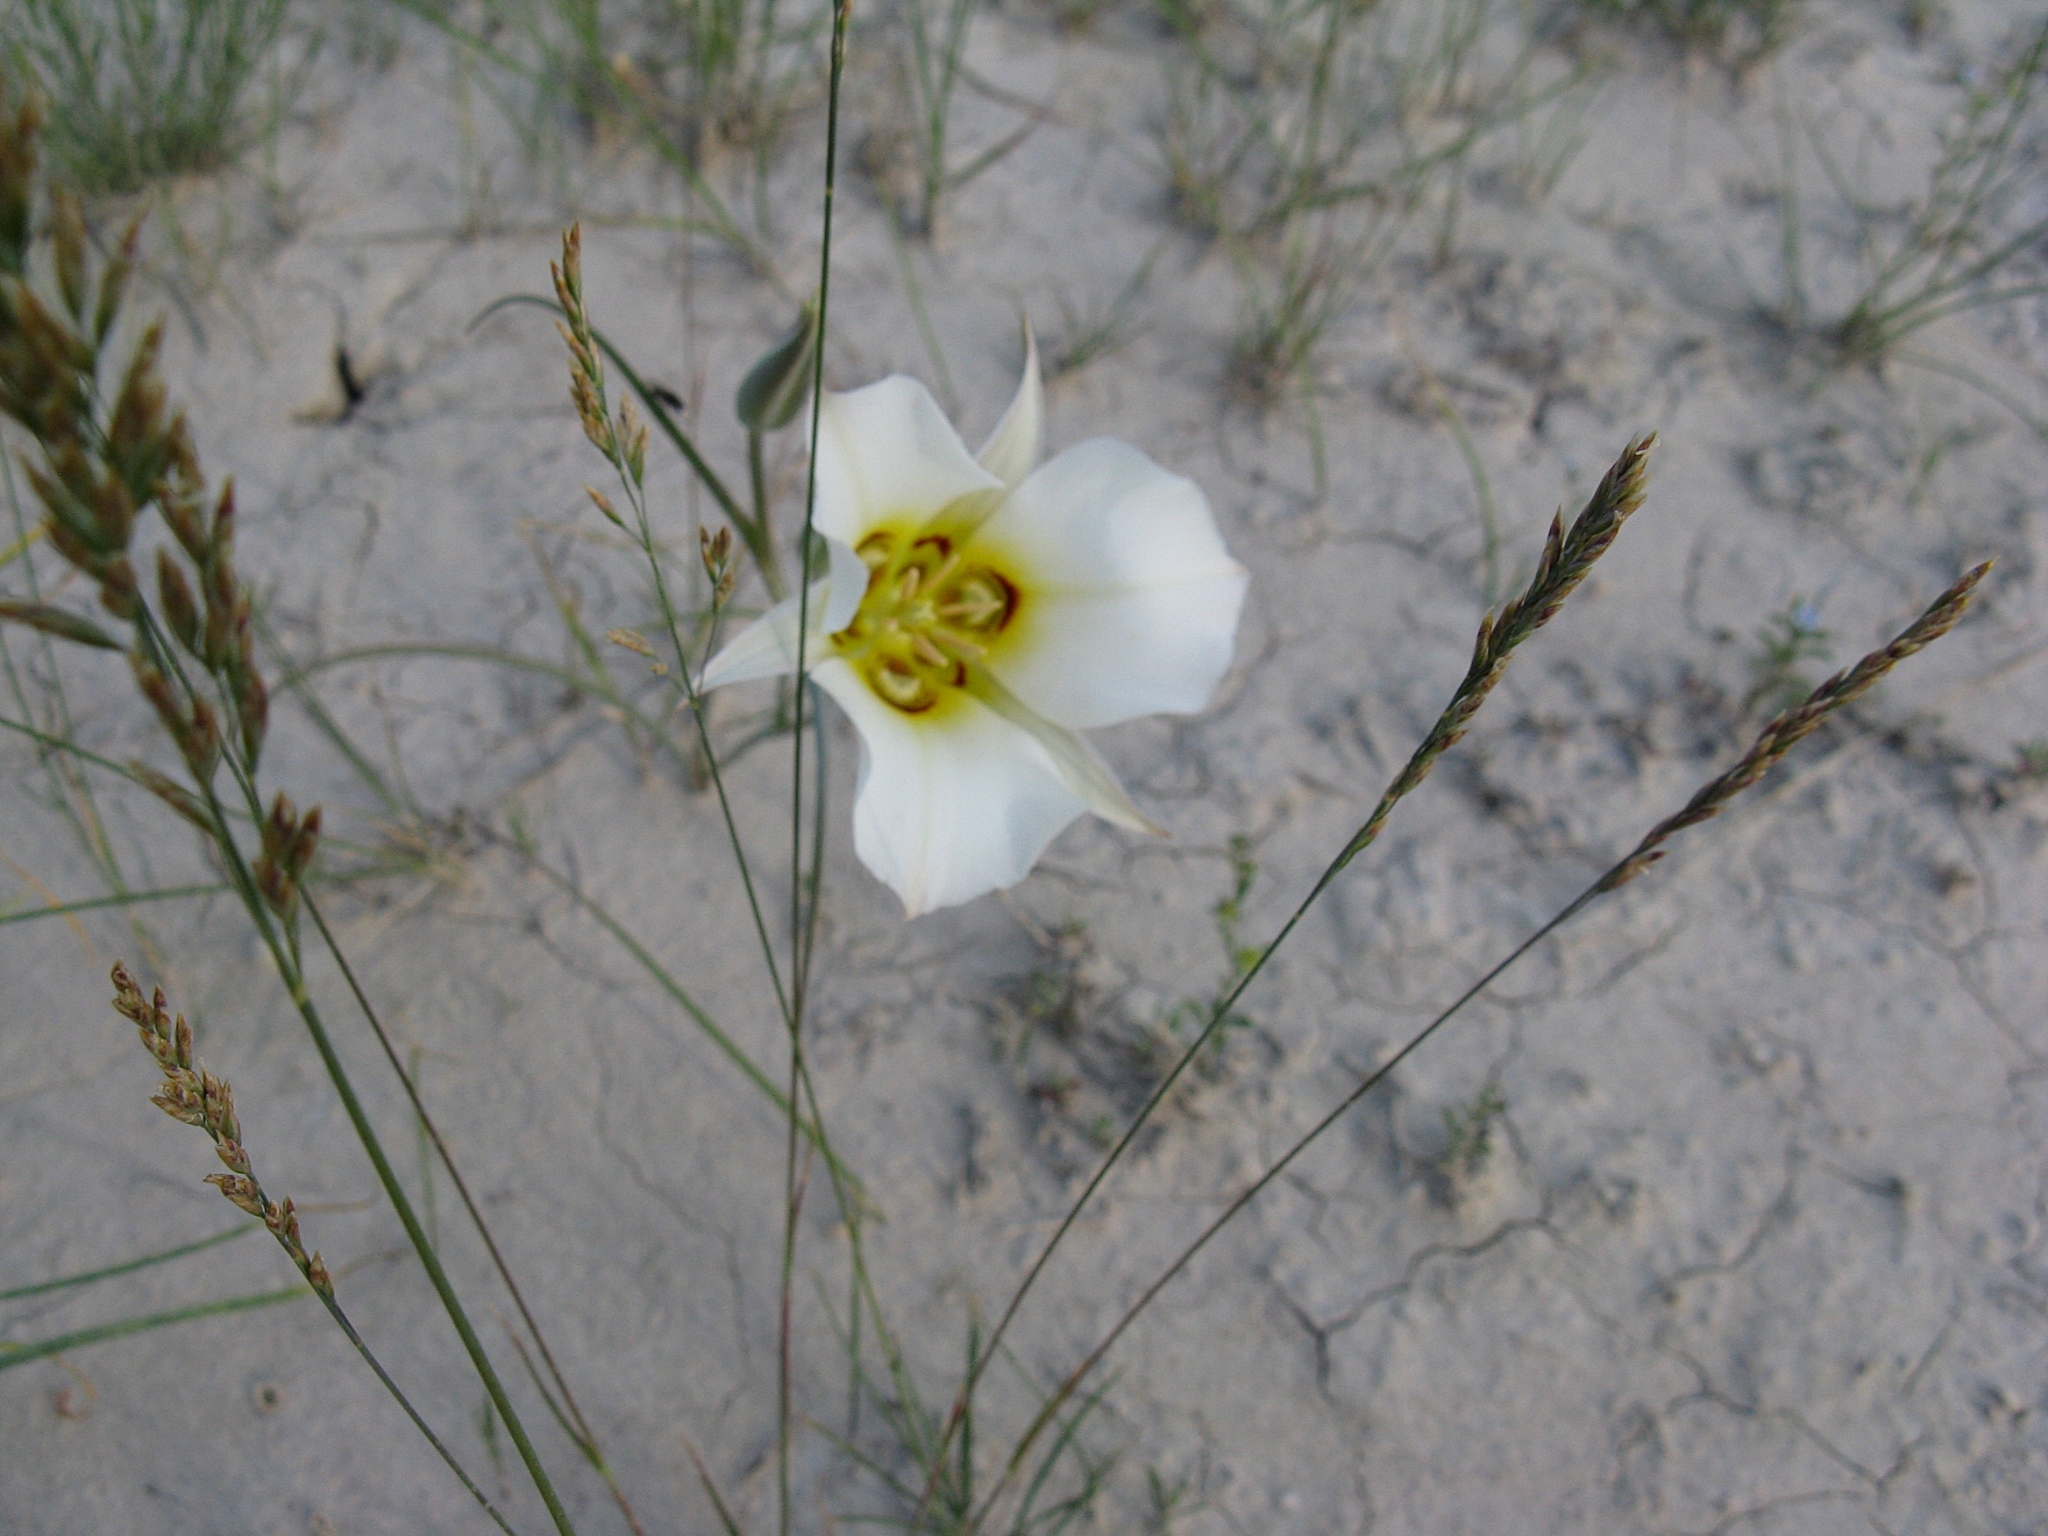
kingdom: Plantae
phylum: Tracheophyta
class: Liliopsida
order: Liliales
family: Liliaceae
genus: Calochortus
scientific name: Calochortus nuttallii
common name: Sego-lily
